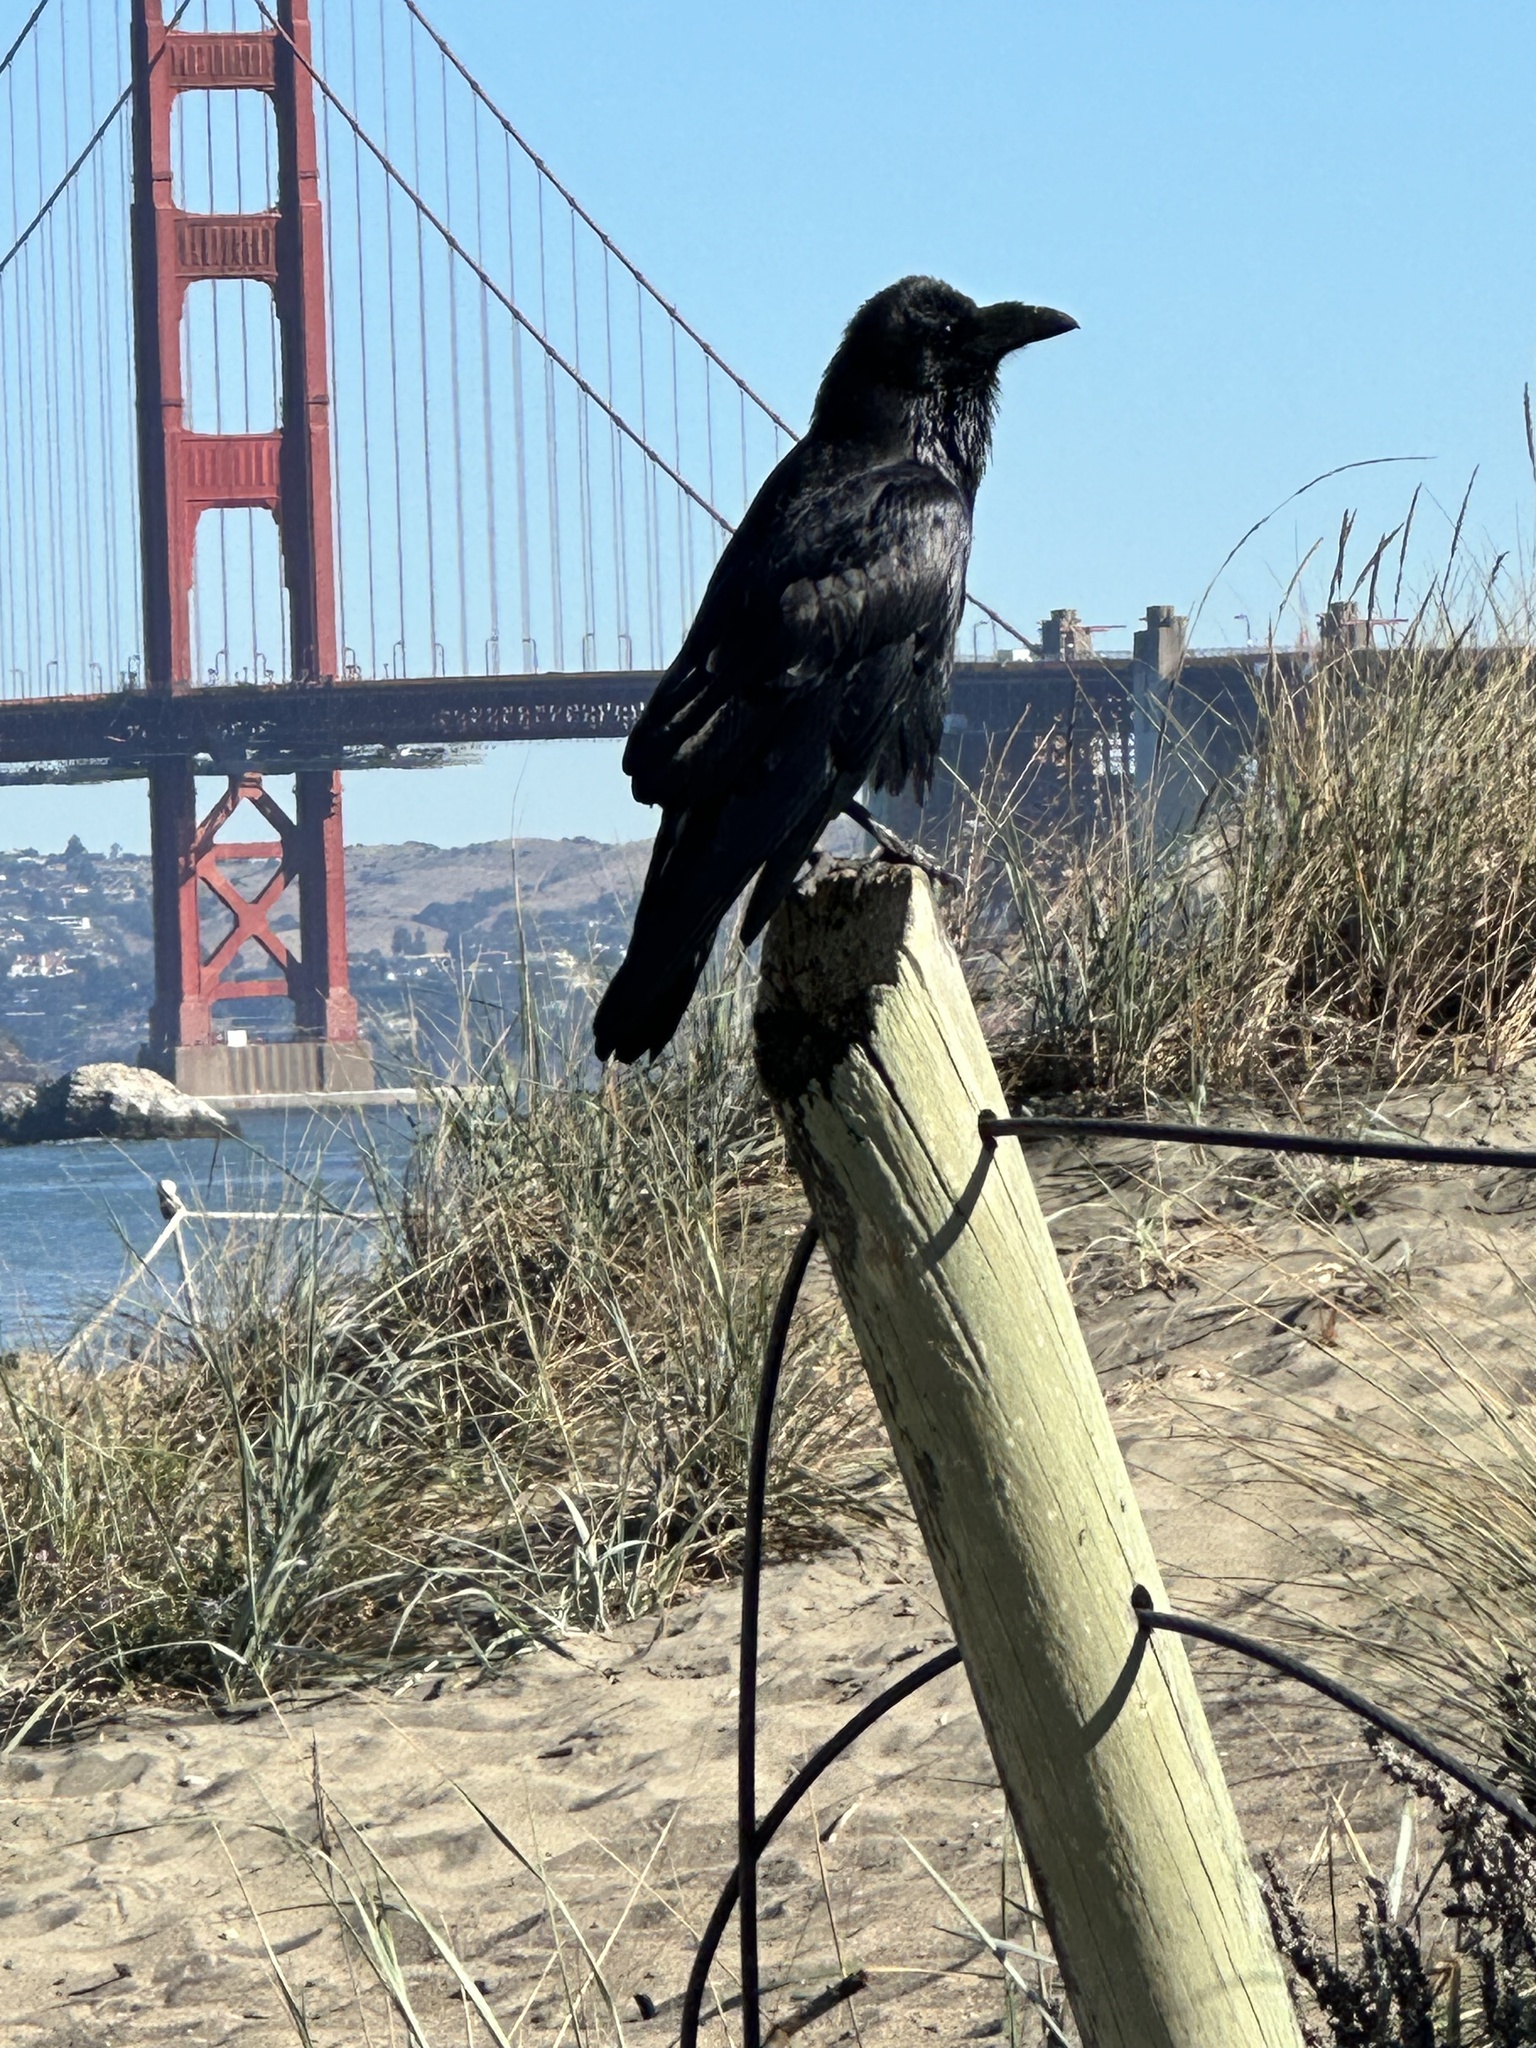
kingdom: Animalia
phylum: Chordata
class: Aves
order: Passeriformes
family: Corvidae
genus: Corvus
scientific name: Corvus corax
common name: Common raven
